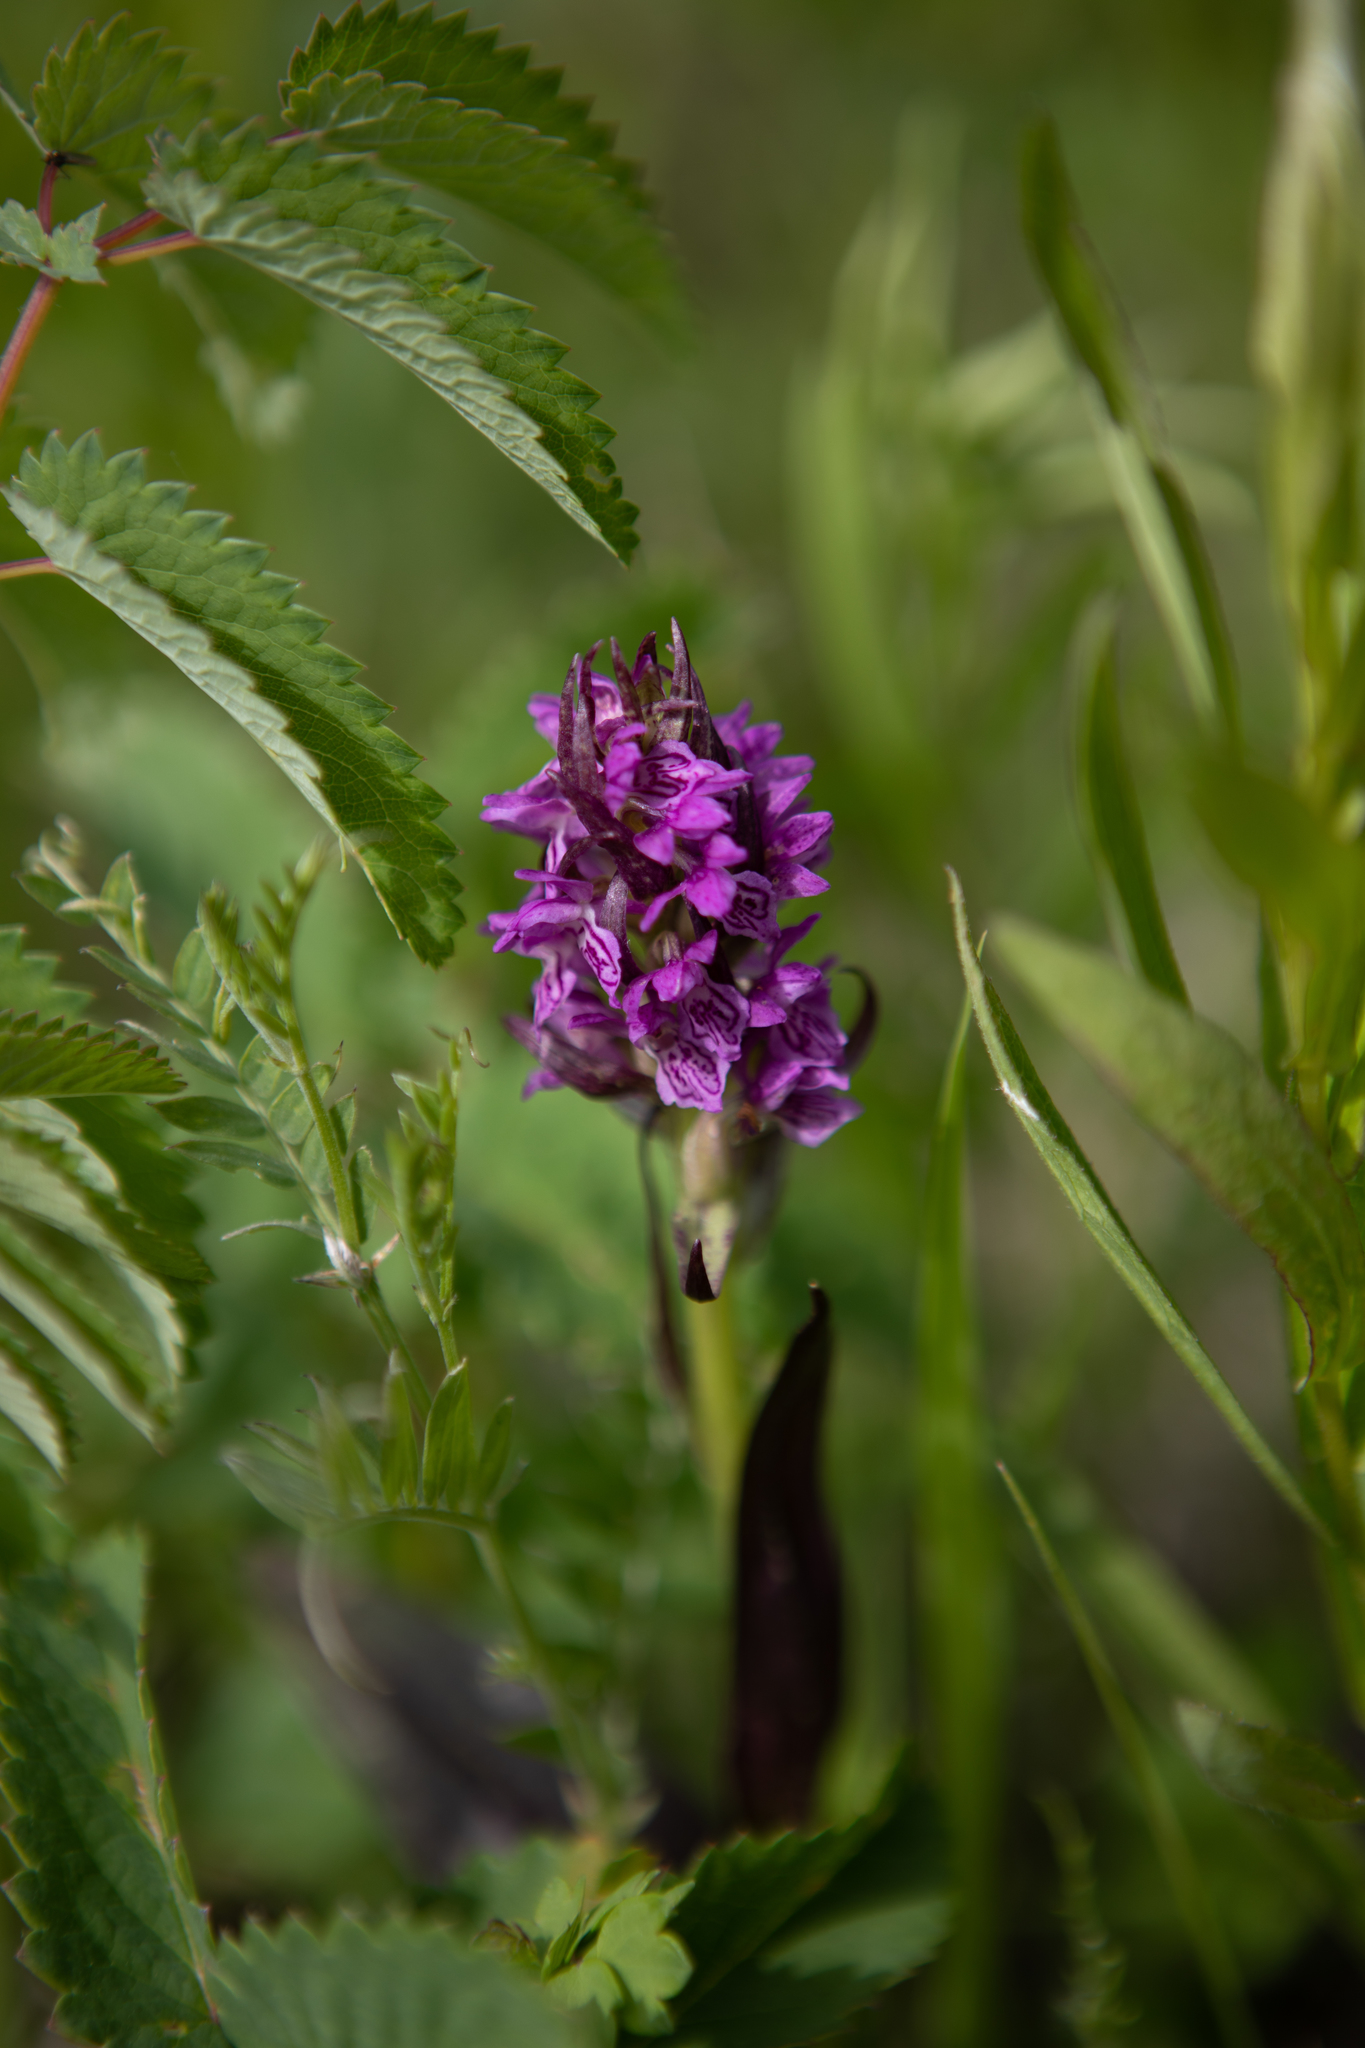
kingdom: Plantae
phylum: Tracheophyta
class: Liliopsida
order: Asparagales
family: Orchidaceae
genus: Dactylorhiza
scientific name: Dactylorhiza incarnata
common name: Early marsh-orchid
